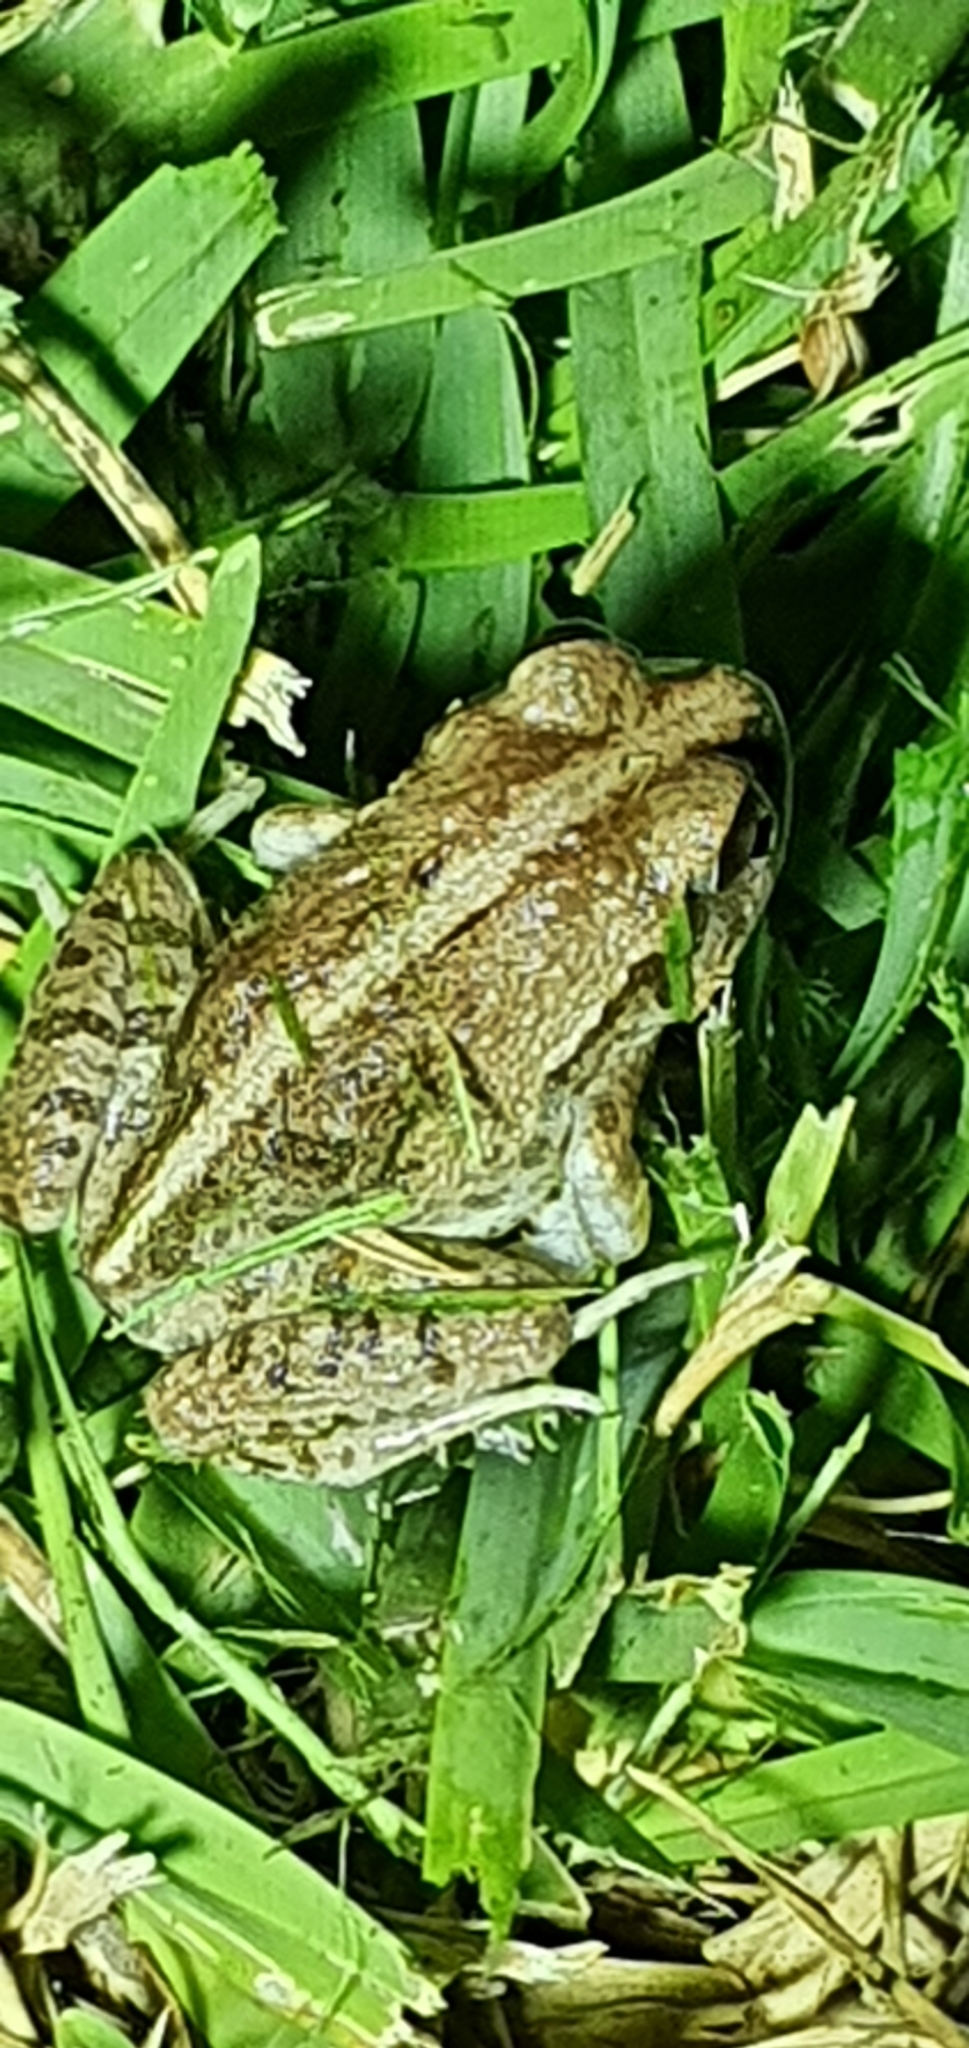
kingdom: Animalia
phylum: Chordata
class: Amphibia
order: Anura
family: Limnodynastidae
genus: Platyplectrum
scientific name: Platyplectrum ornatum
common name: Ornate burrowing frog
